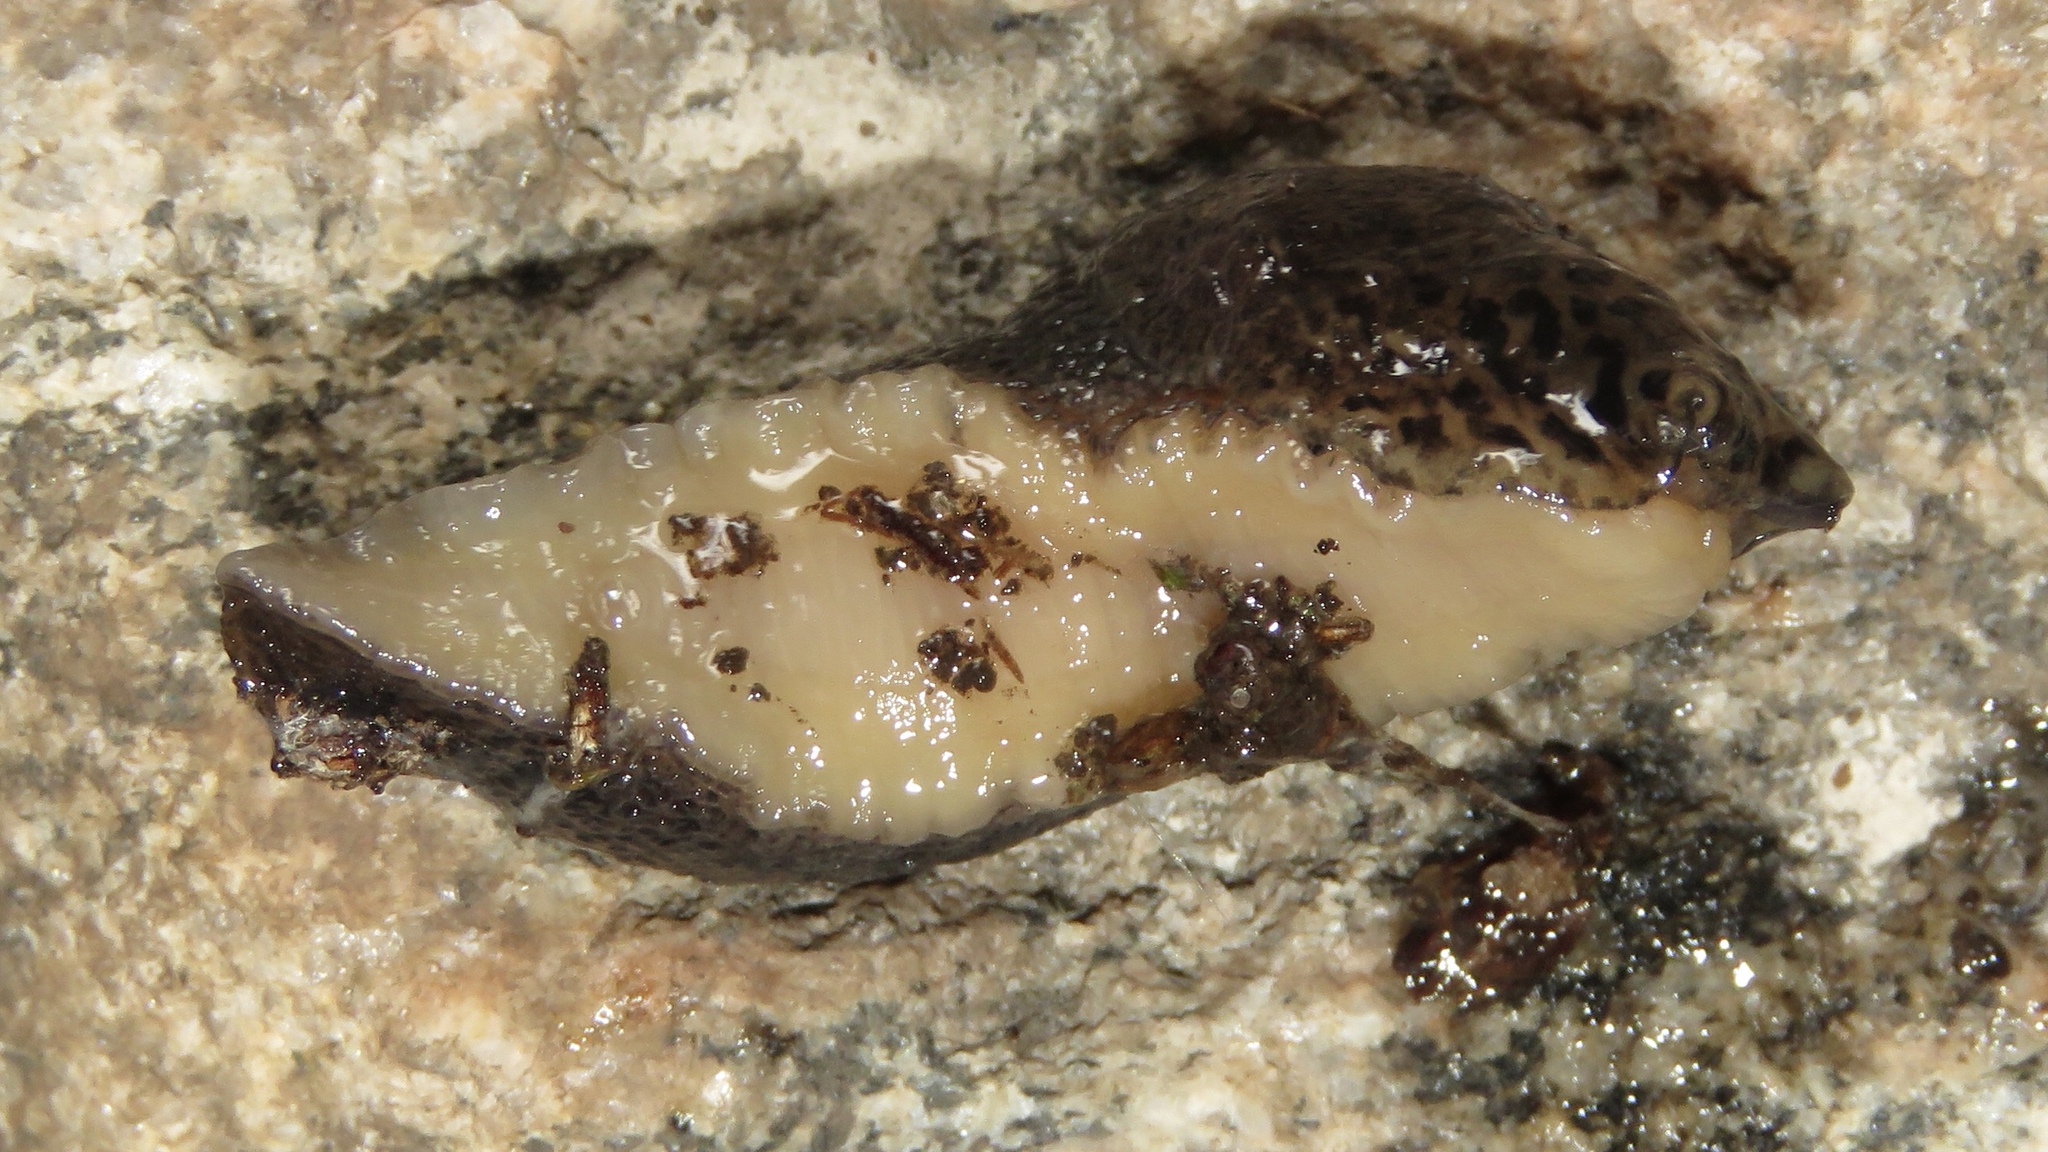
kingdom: Animalia
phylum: Mollusca
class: Gastropoda
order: Stylommatophora
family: Limacidae
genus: Limax
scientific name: Limax maximus
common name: Great grey slug
